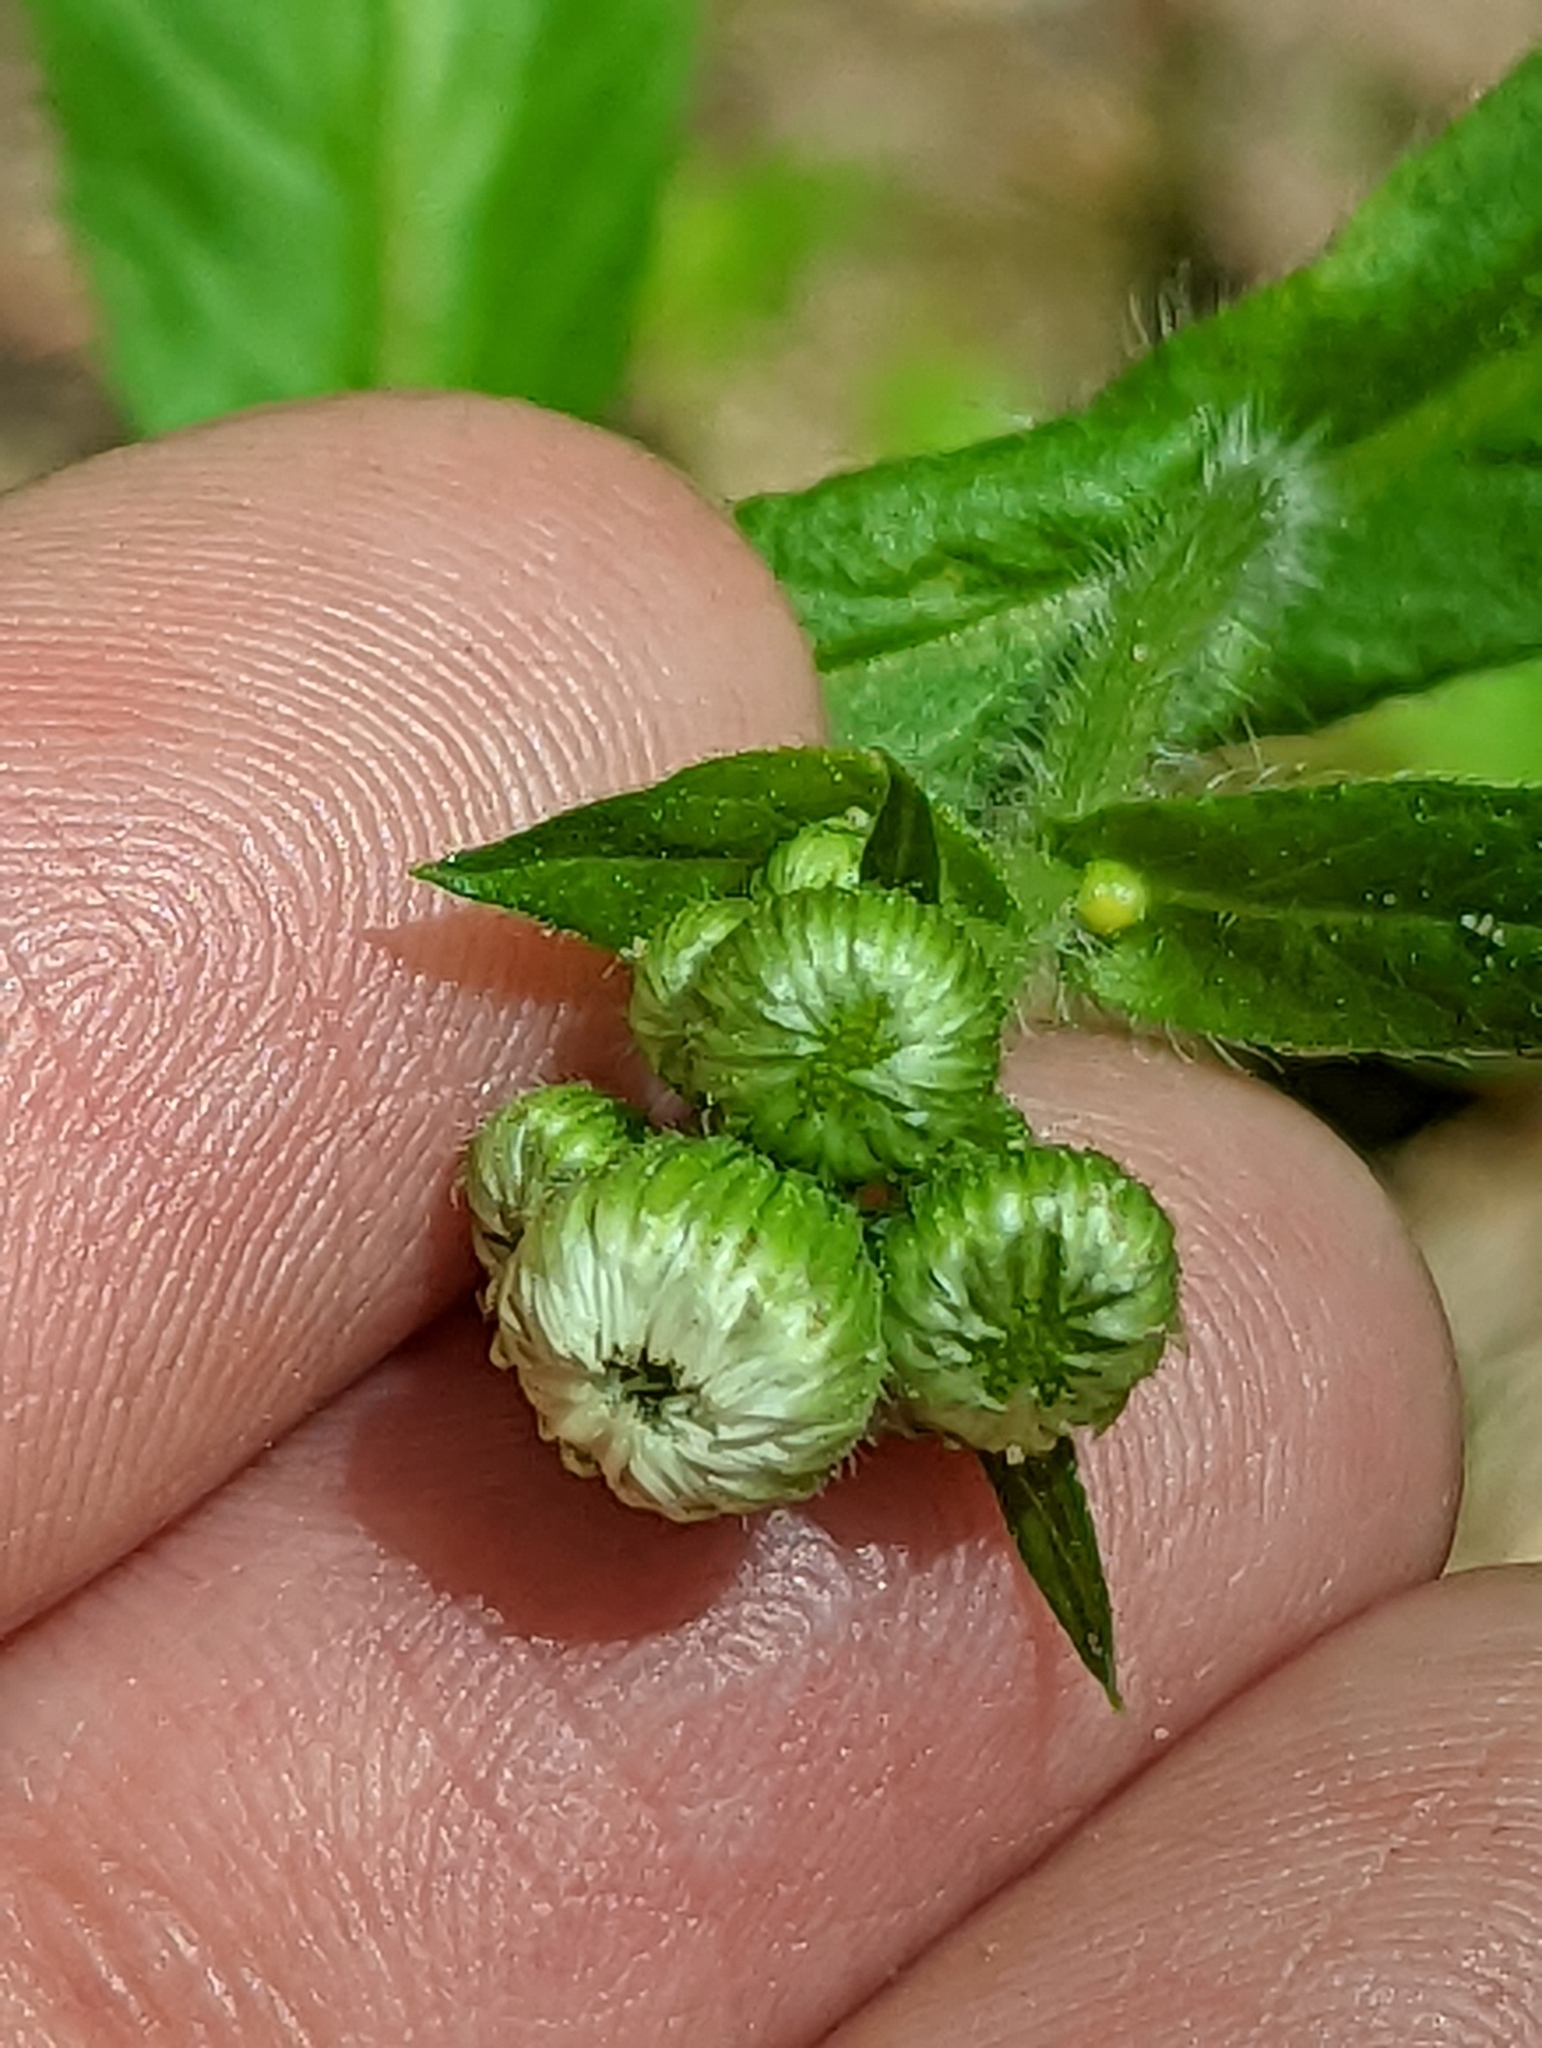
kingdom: Plantae
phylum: Tracheophyta
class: Magnoliopsida
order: Asterales
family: Asteraceae
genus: Erigeron
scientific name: Erigeron philadelphicus
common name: Robin's-plantain
